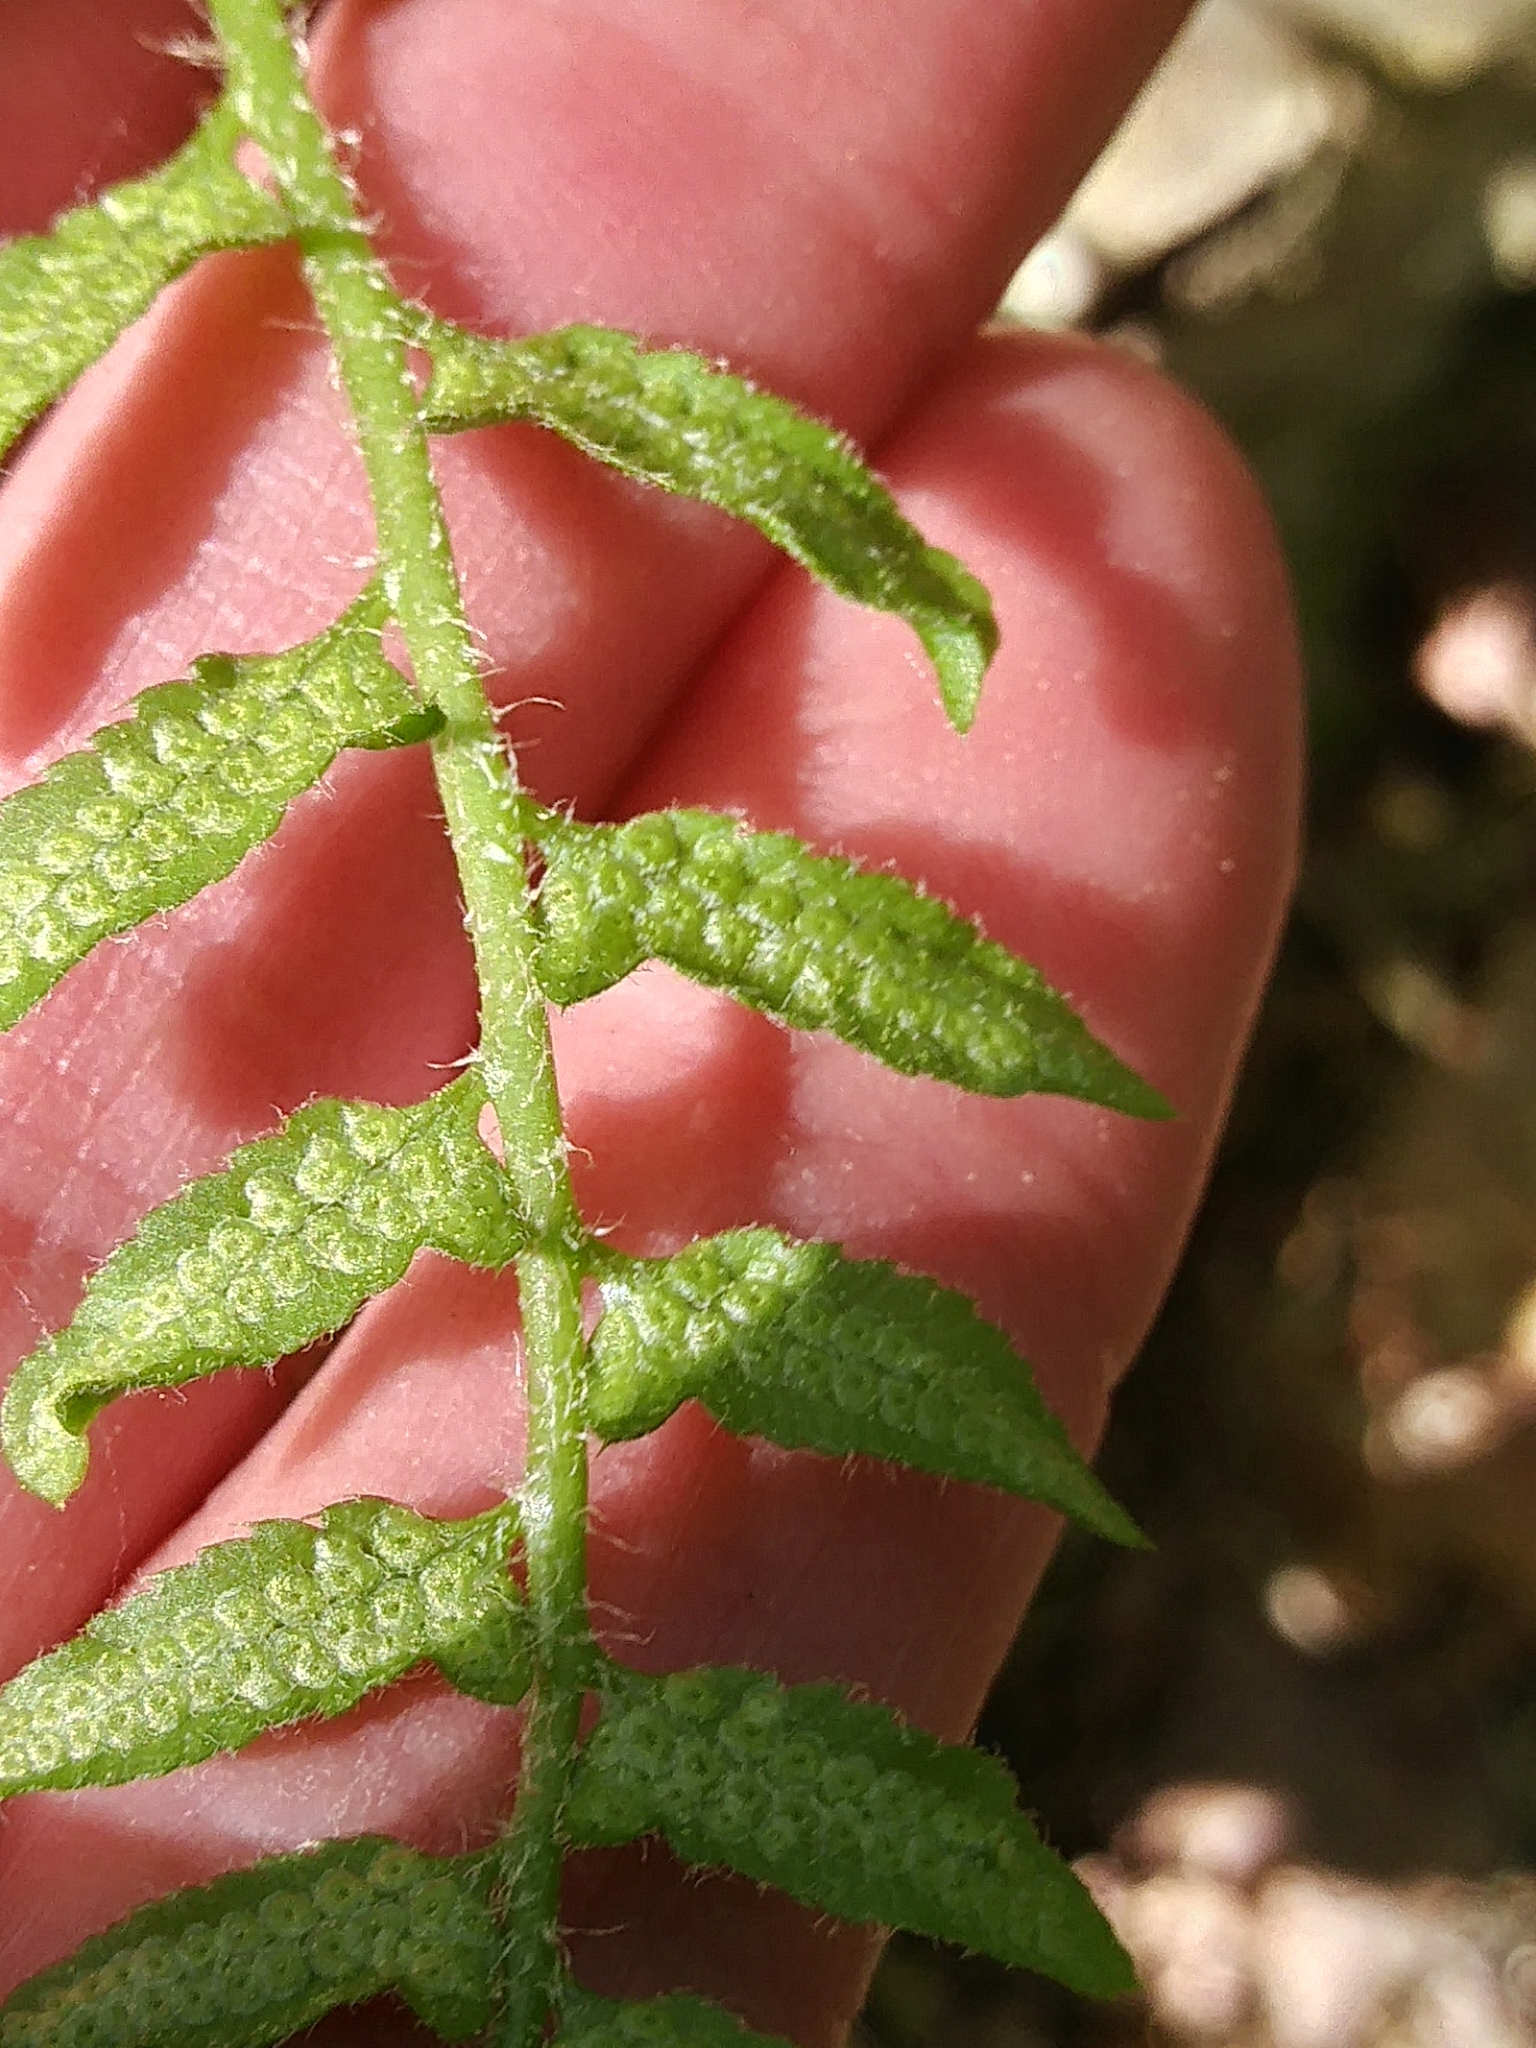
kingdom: Plantae
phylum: Tracheophyta
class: Polypodiopsida
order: Polypodiales
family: Dryopteridaceae
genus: Polystichum
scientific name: Polystichum acrostichoides
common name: Christmas fern
